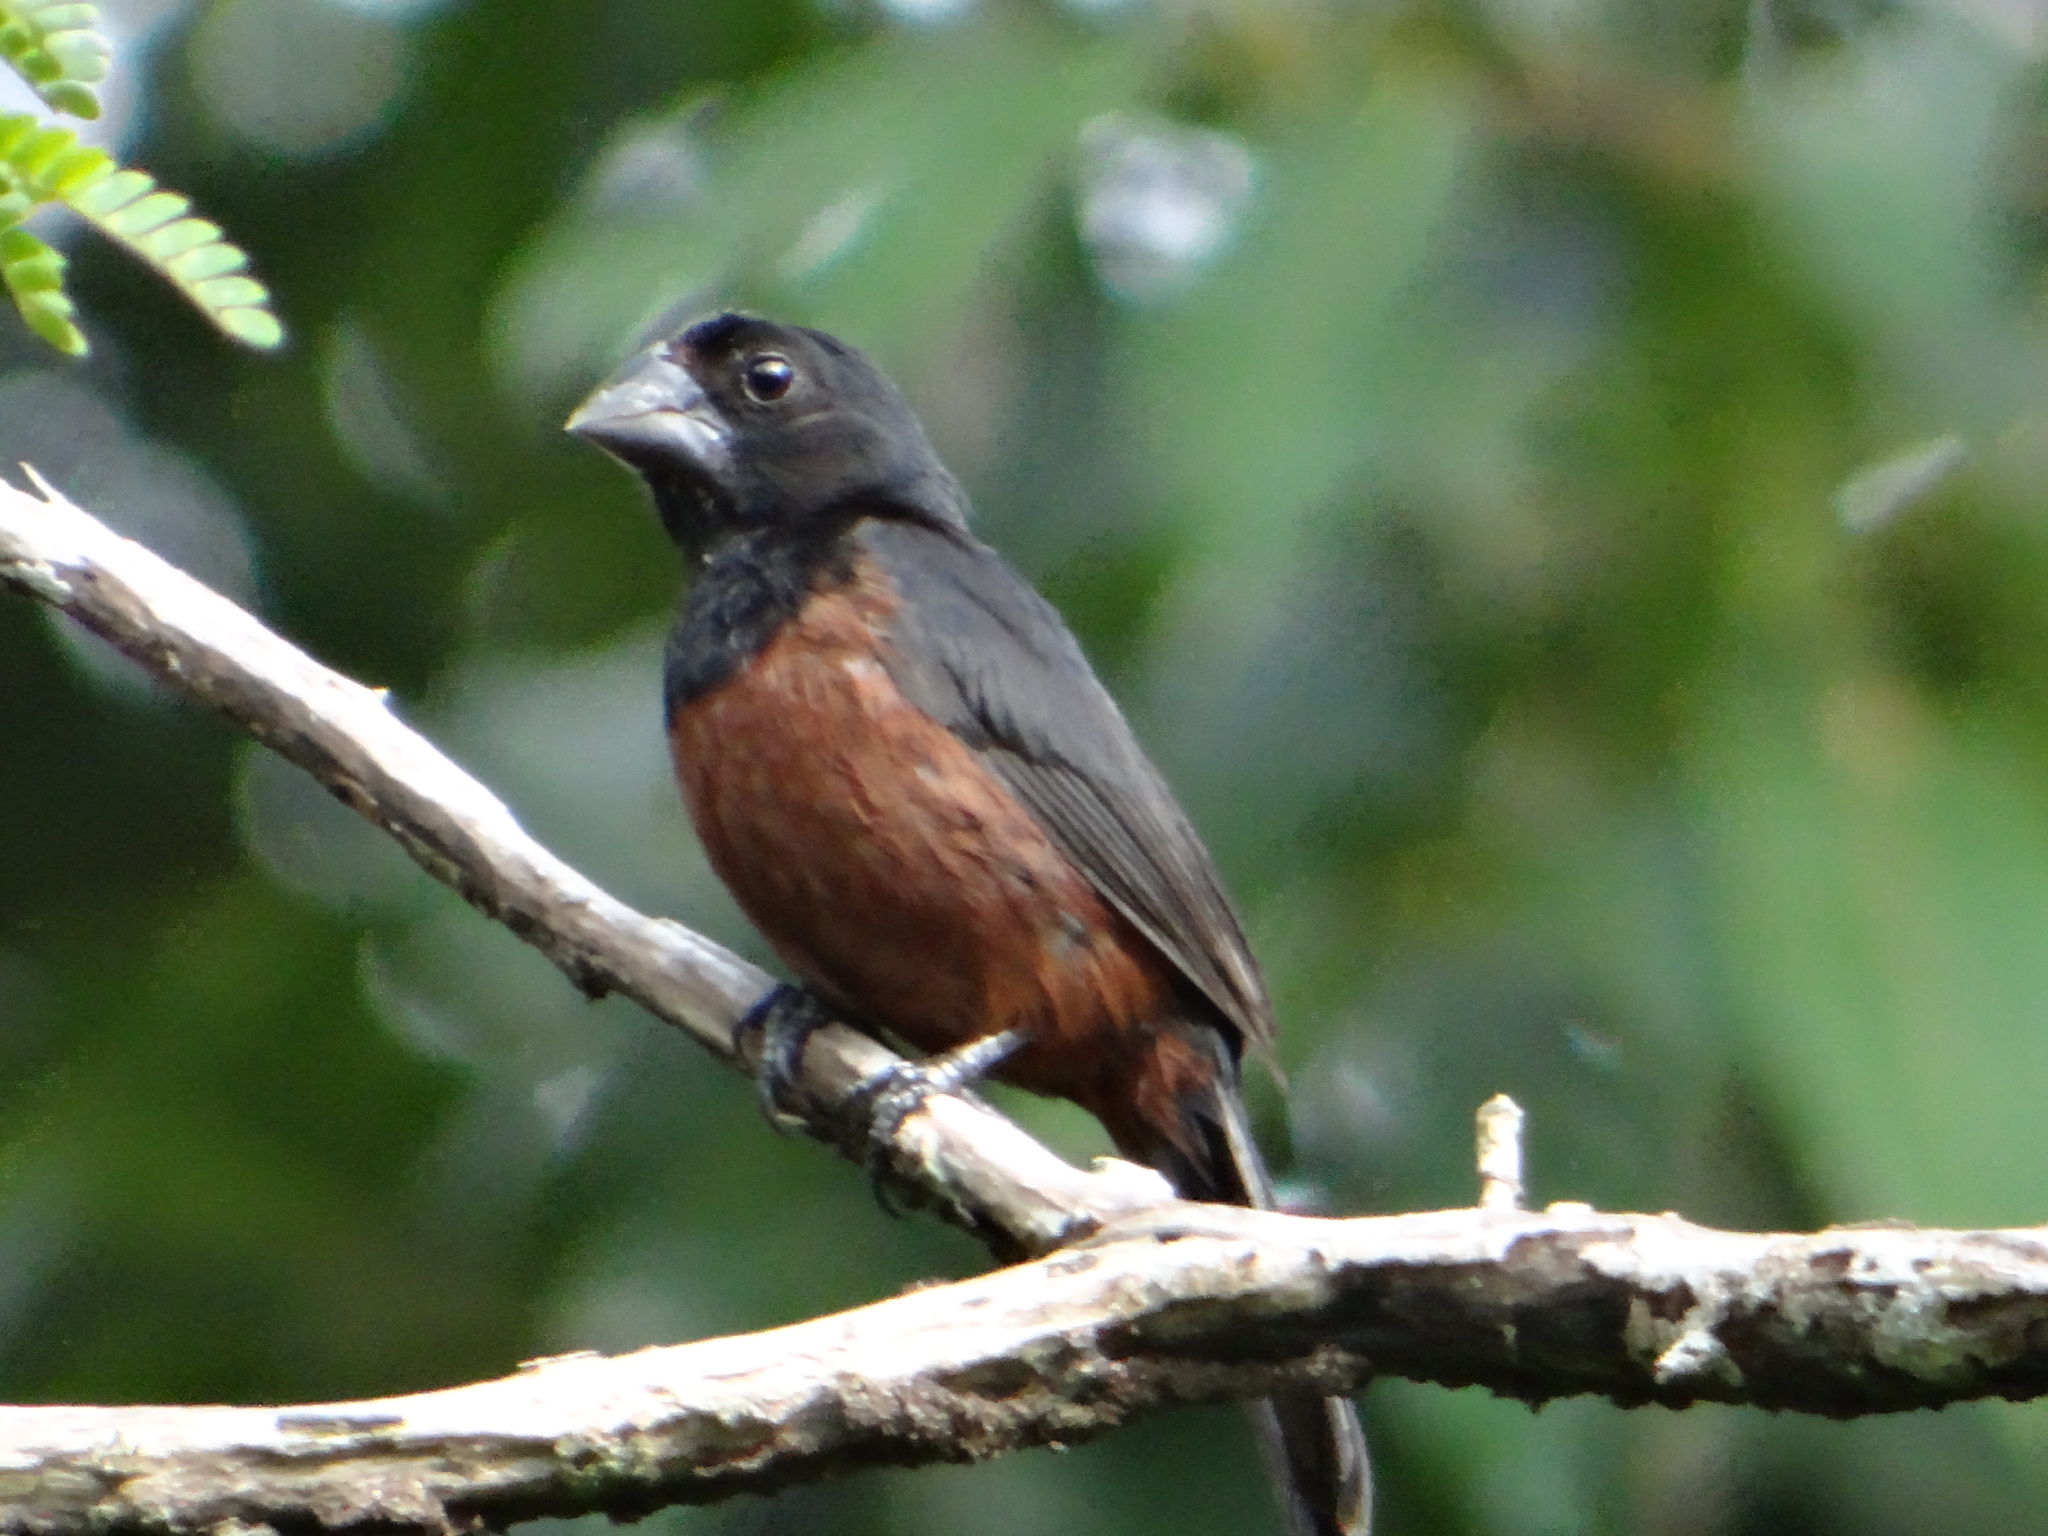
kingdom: Animalia
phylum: Chordata
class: Aves
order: Passeriformes
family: Thraupidae
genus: Sporophila
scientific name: Sporophila angolensis
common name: Chestnut-bellied seed-finch
